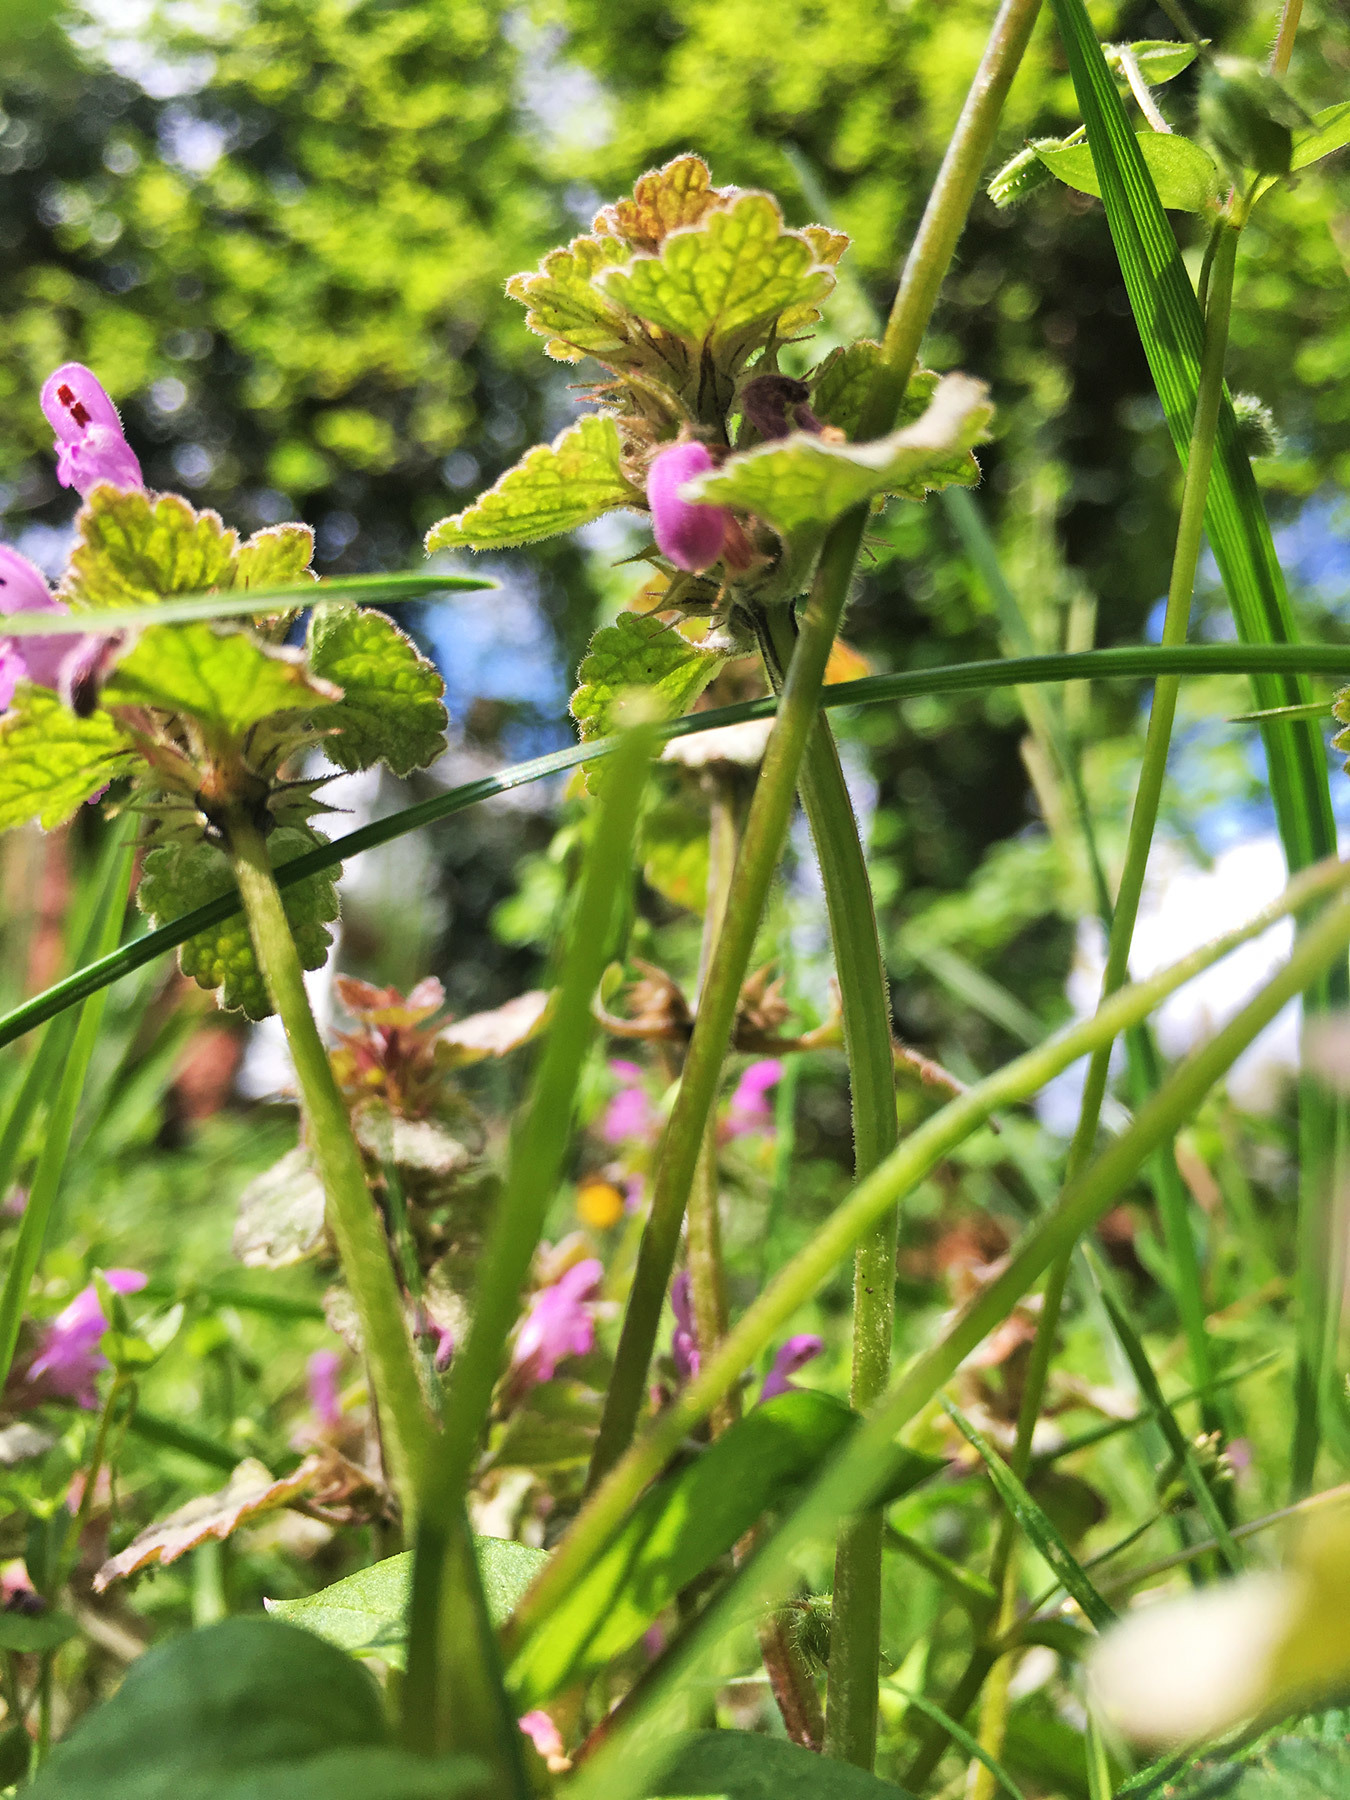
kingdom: Plantae
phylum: Tracheophyta
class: Magnoliopsida
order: Lamiales
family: Lamiaceae
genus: Lamium
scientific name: Lamium purpureum
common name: Red dead-nettle
